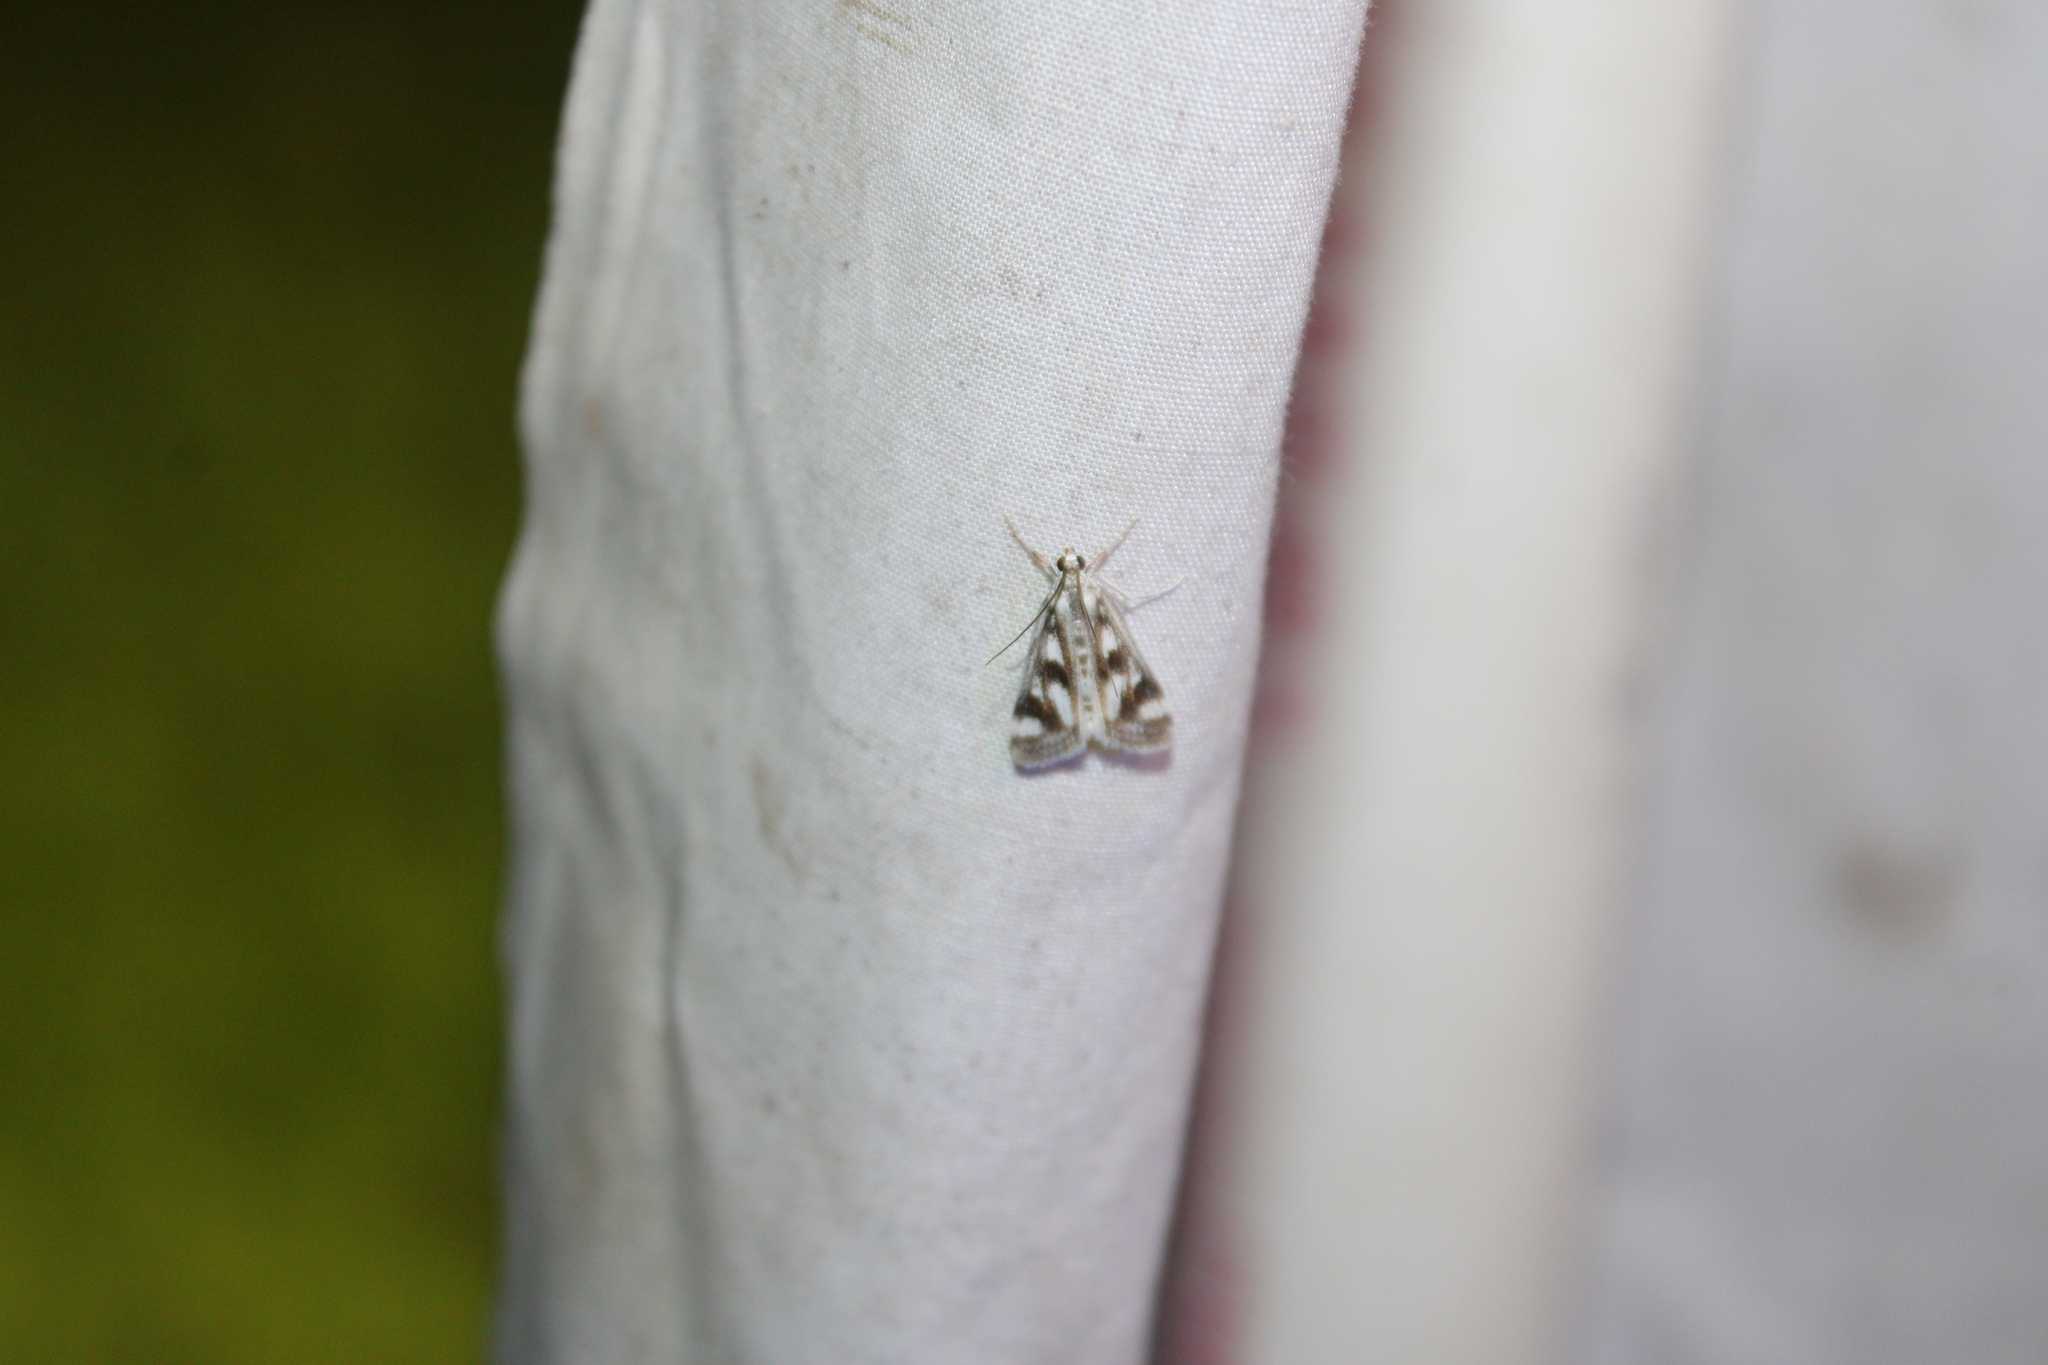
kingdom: Animalia
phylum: Arthropoda
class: Insecta
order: Lepidoptera
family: Crambidae
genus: Parapoynx
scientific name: Parapoynx maculalis
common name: Polymorphic pondweed moth
